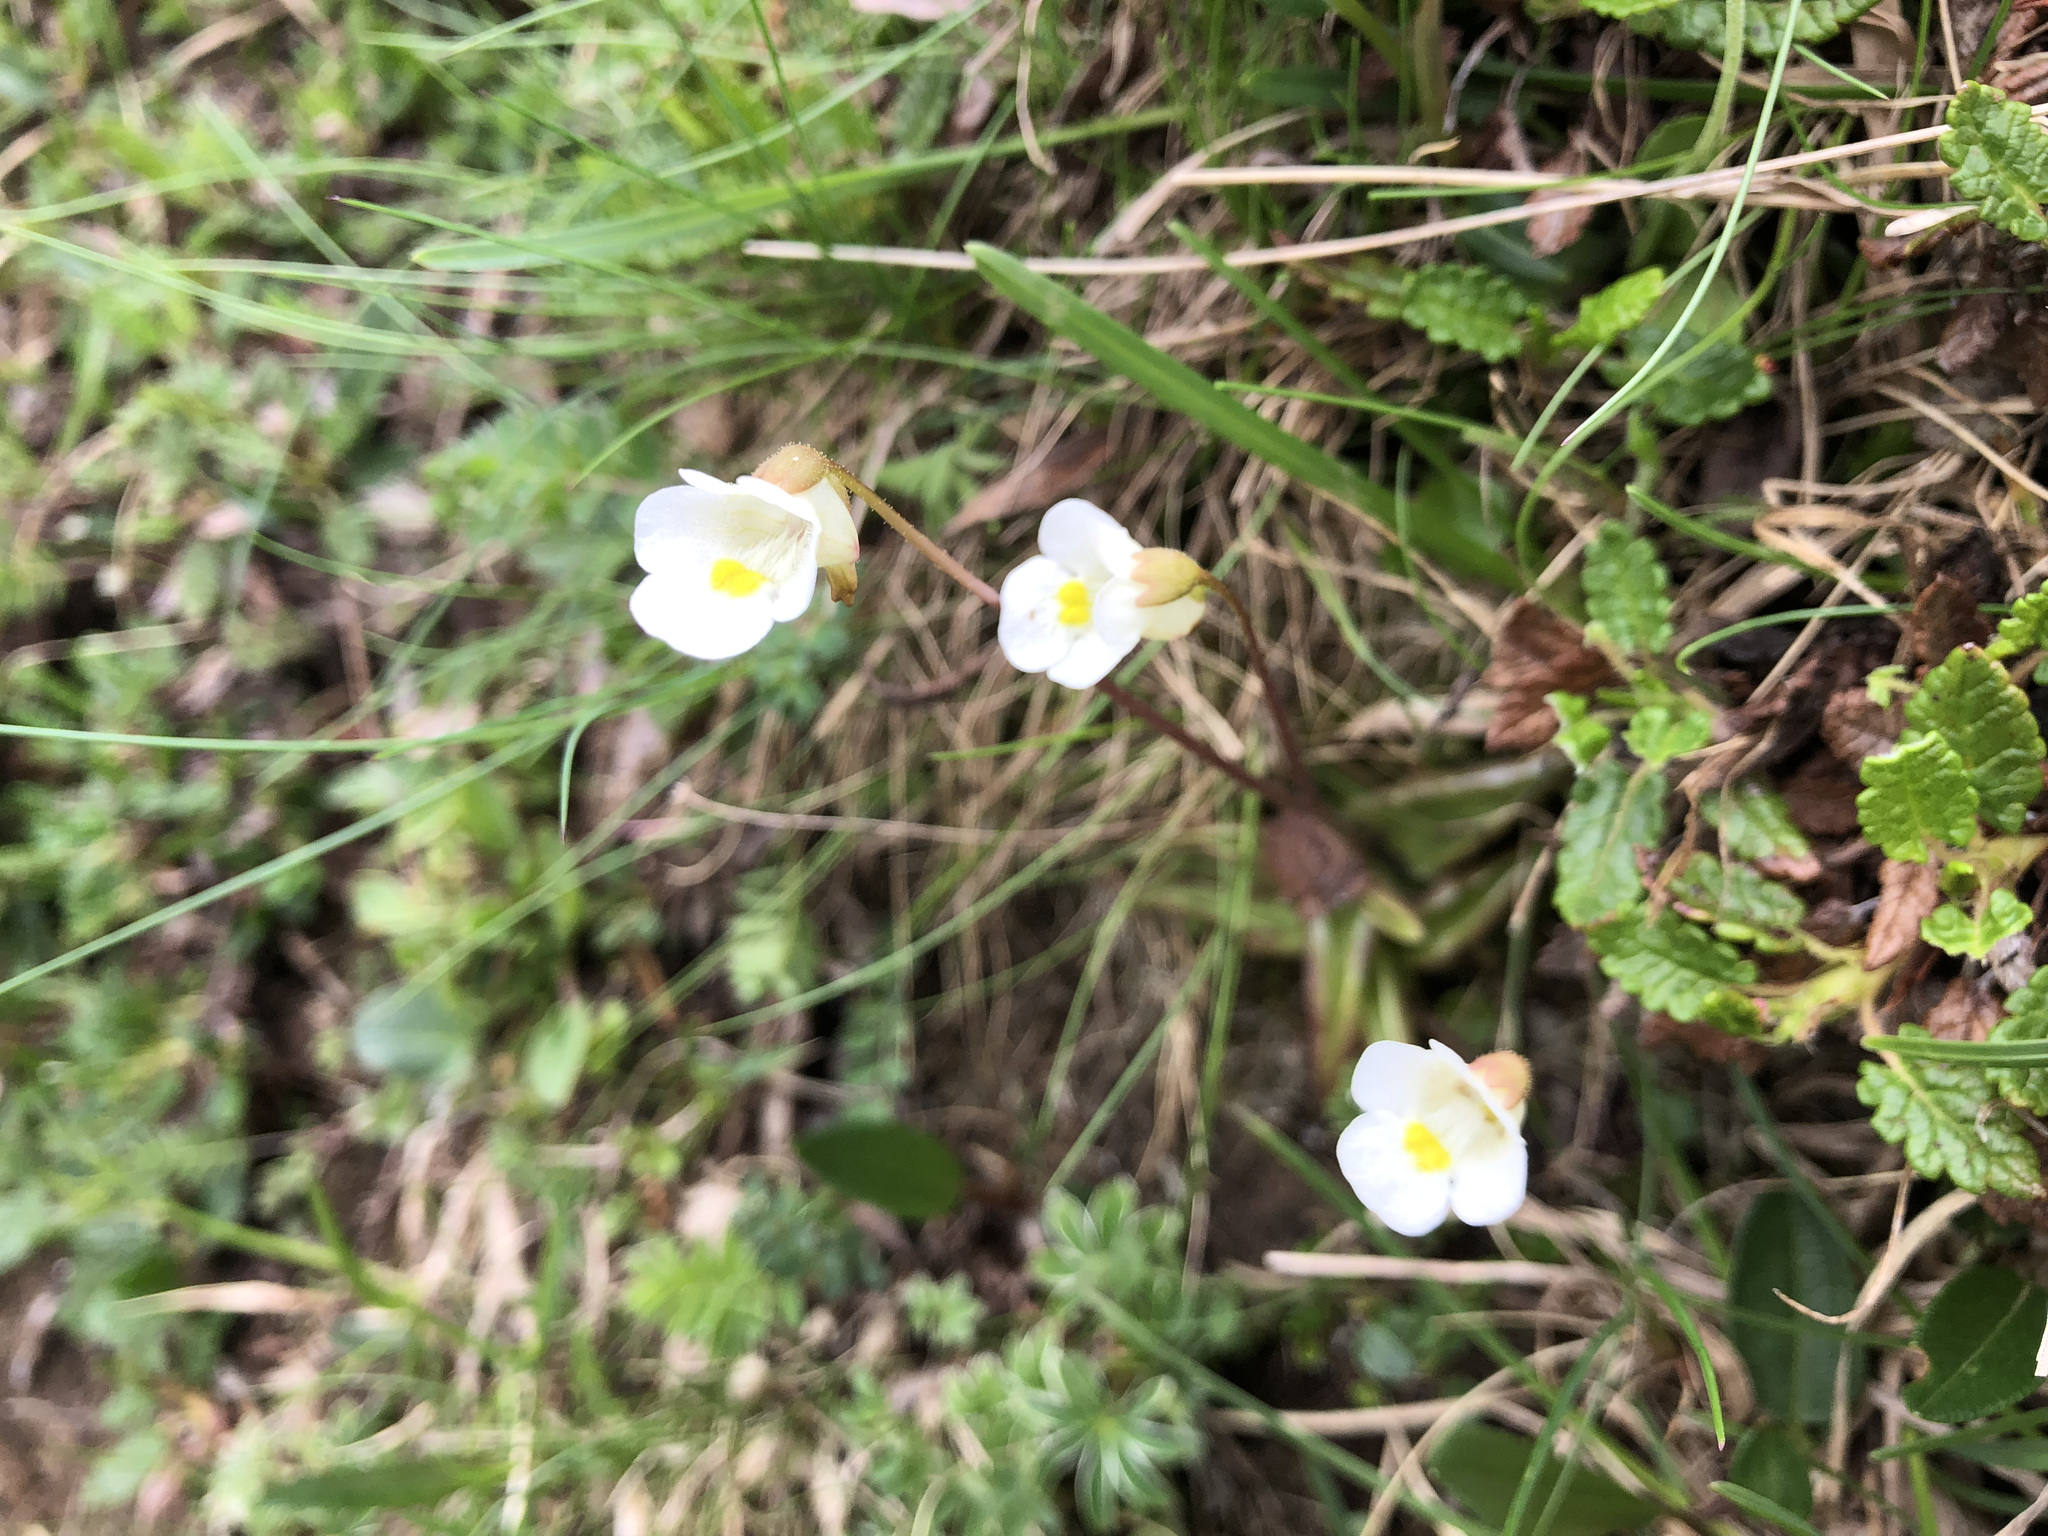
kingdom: Plantae
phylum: Tracheophyta
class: Magnoliopsida
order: Lamiales
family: Lentibulariaceae
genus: Pinguicula
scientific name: Pinguicula alpina
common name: Alpine butterwort
